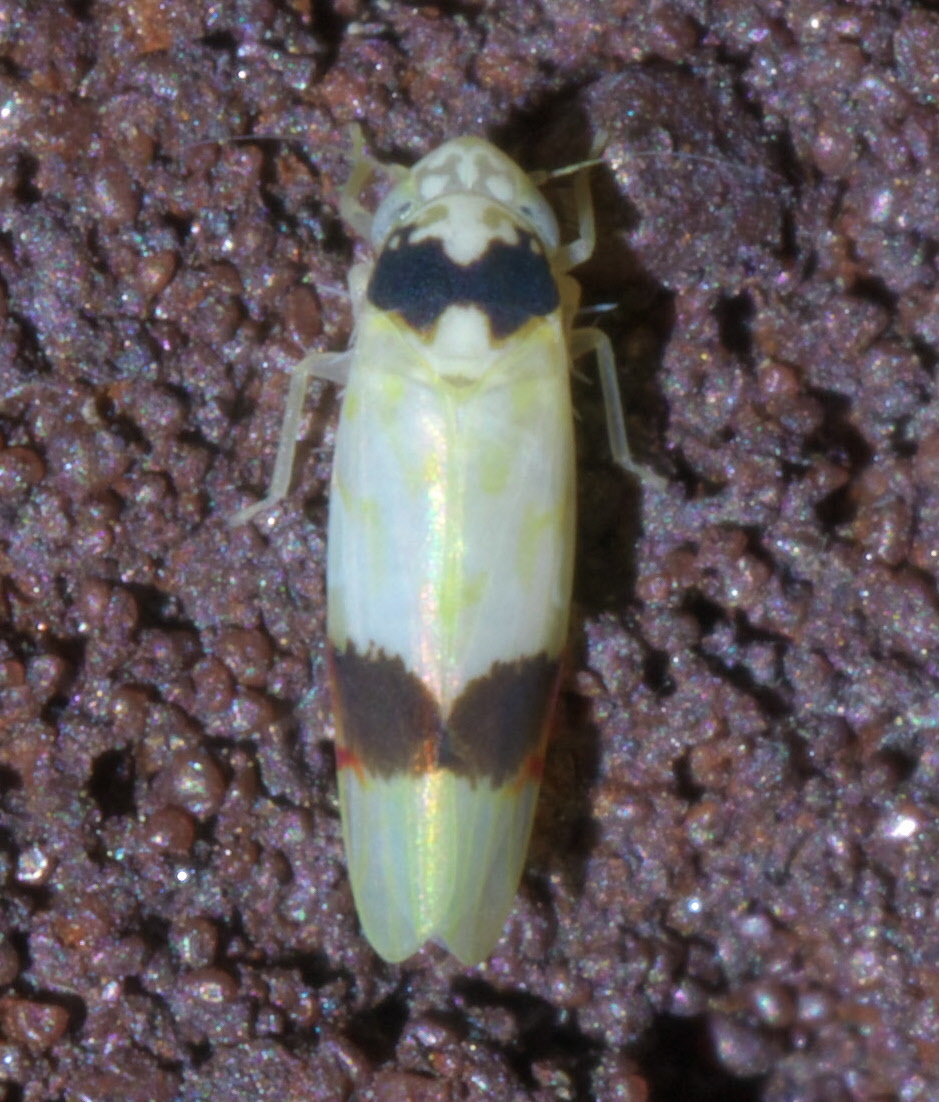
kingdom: Animalia
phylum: Arthropoda
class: Insecta
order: Hemiptera
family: Cicadellidae
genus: Eratoneura
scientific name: Eratoneura morgani
